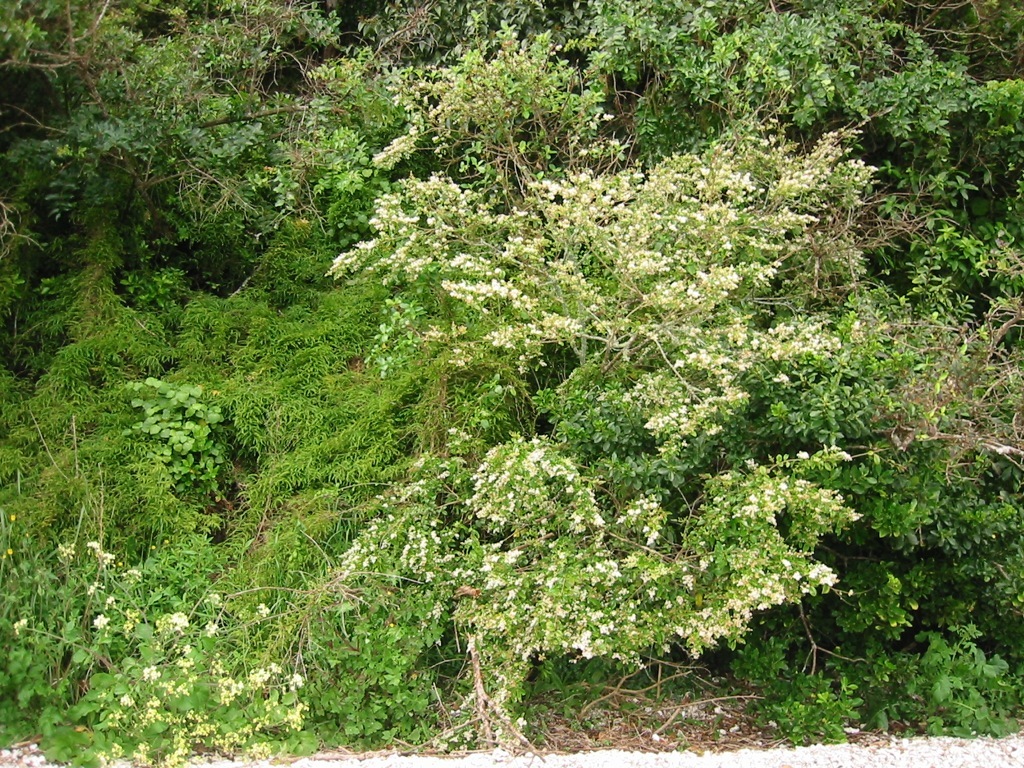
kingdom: Plantae
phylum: Tracheophyta
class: Magnoliopsida
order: Lamiales
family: Oleaceae
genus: Ligustrum
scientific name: Ligustrum sinense
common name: Chinese privet
